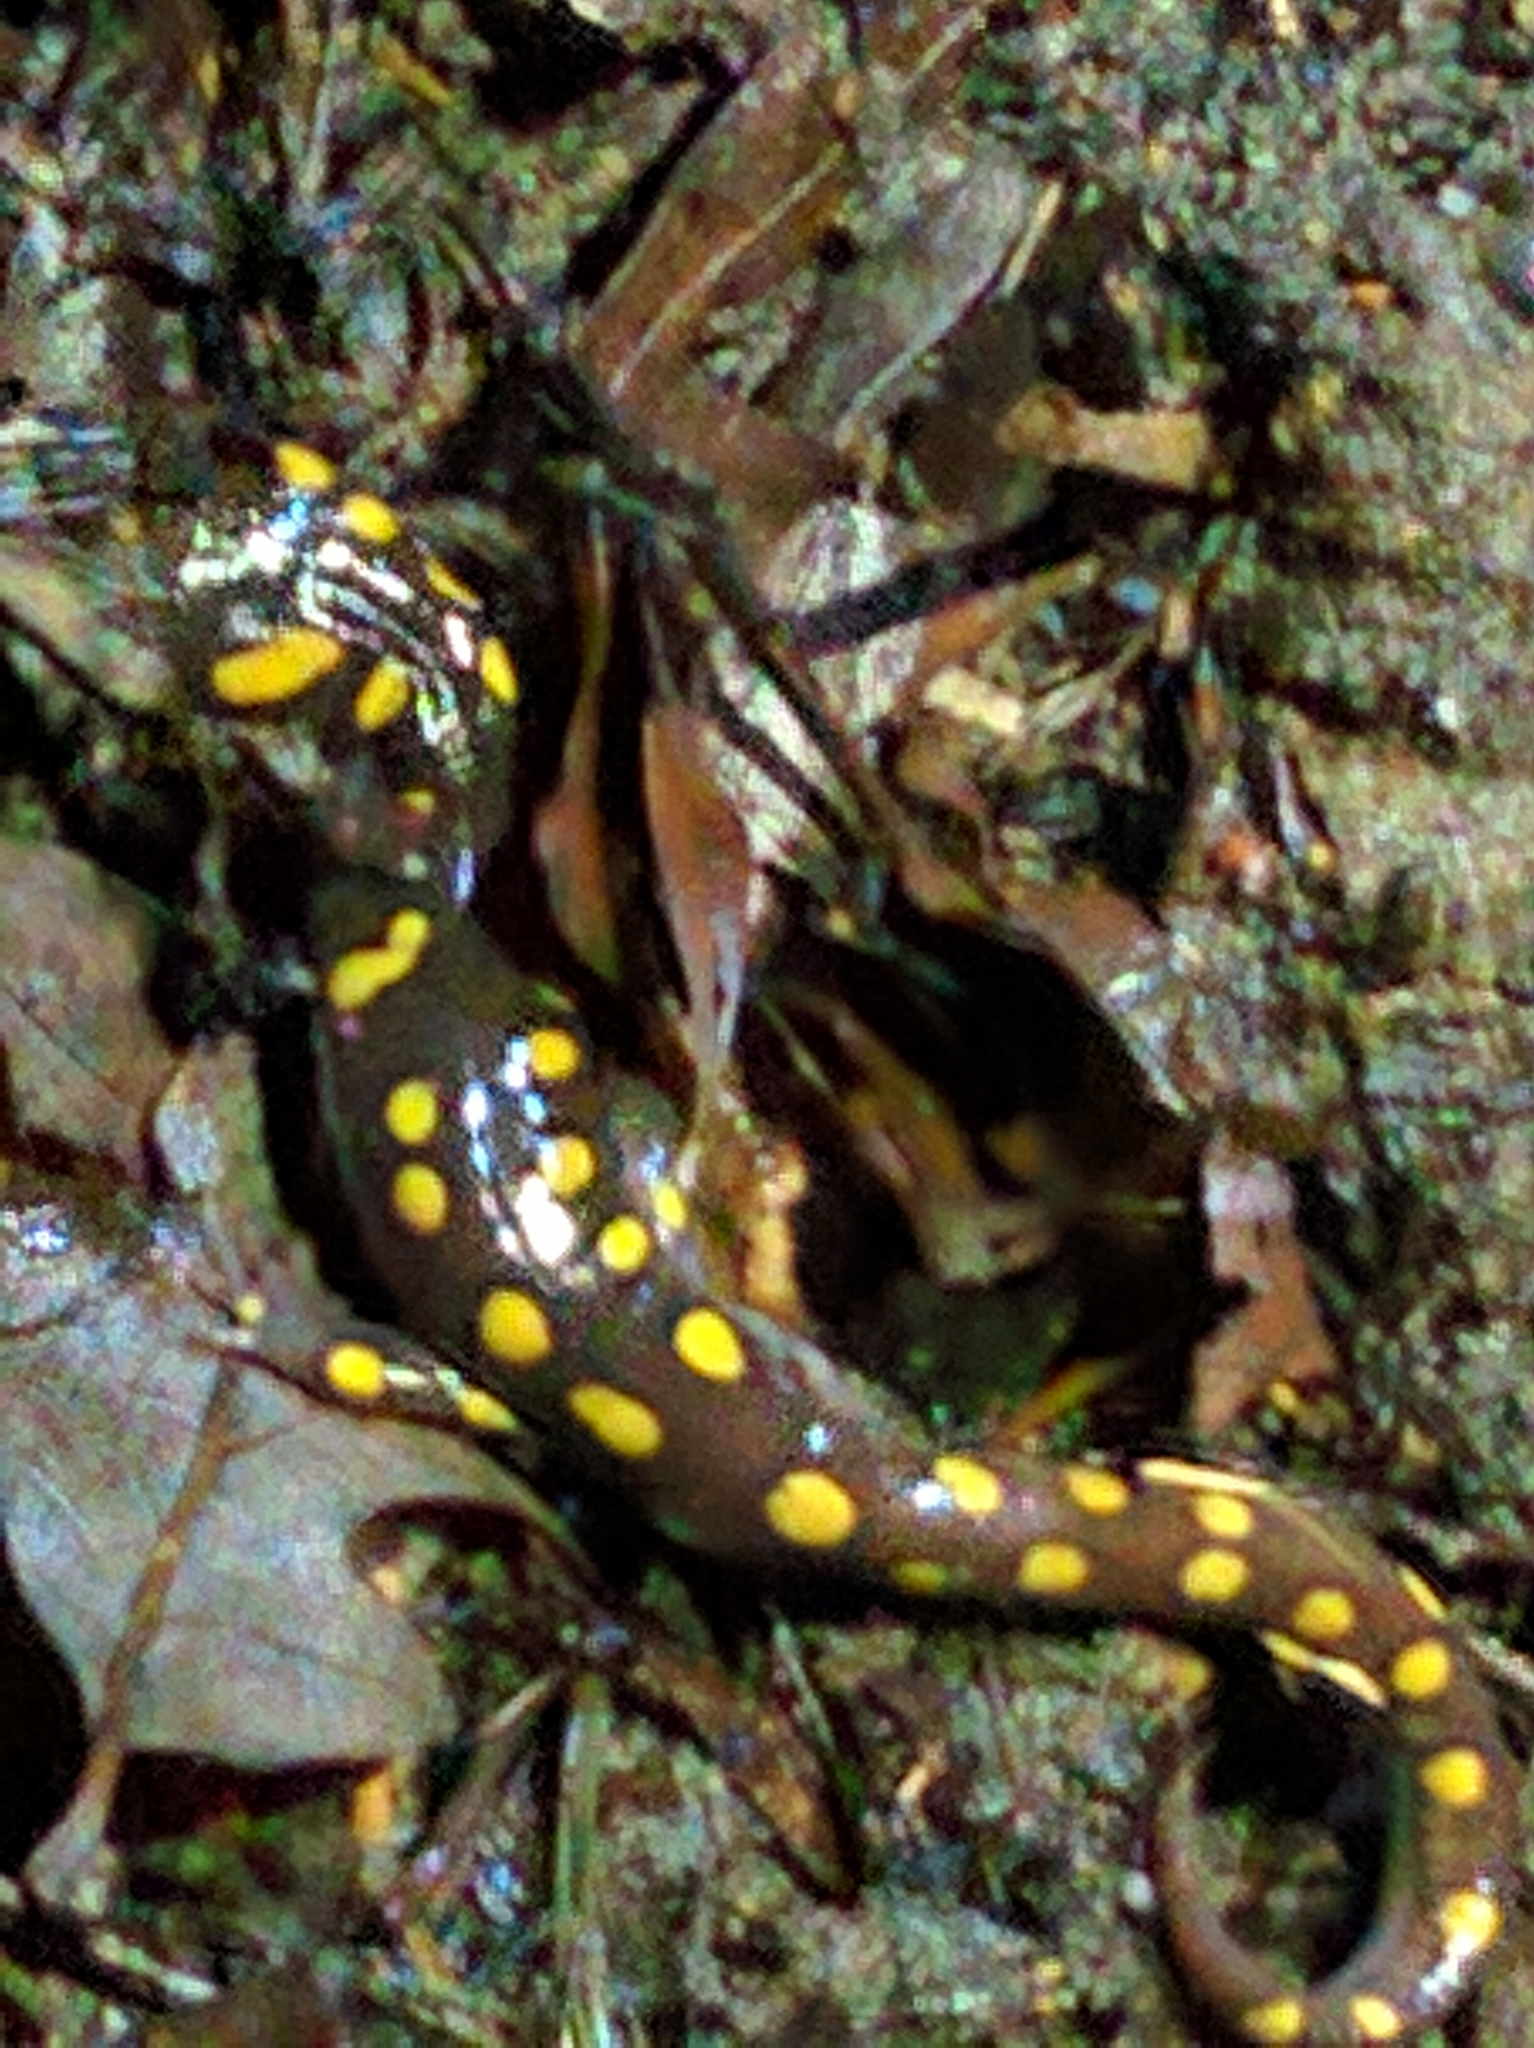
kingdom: Animalia
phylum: Chordata
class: Amphibia
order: Caudata
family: Ambystomatidae
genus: Ambystoma
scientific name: Ambystoma maculatum
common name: Spotted salamander
